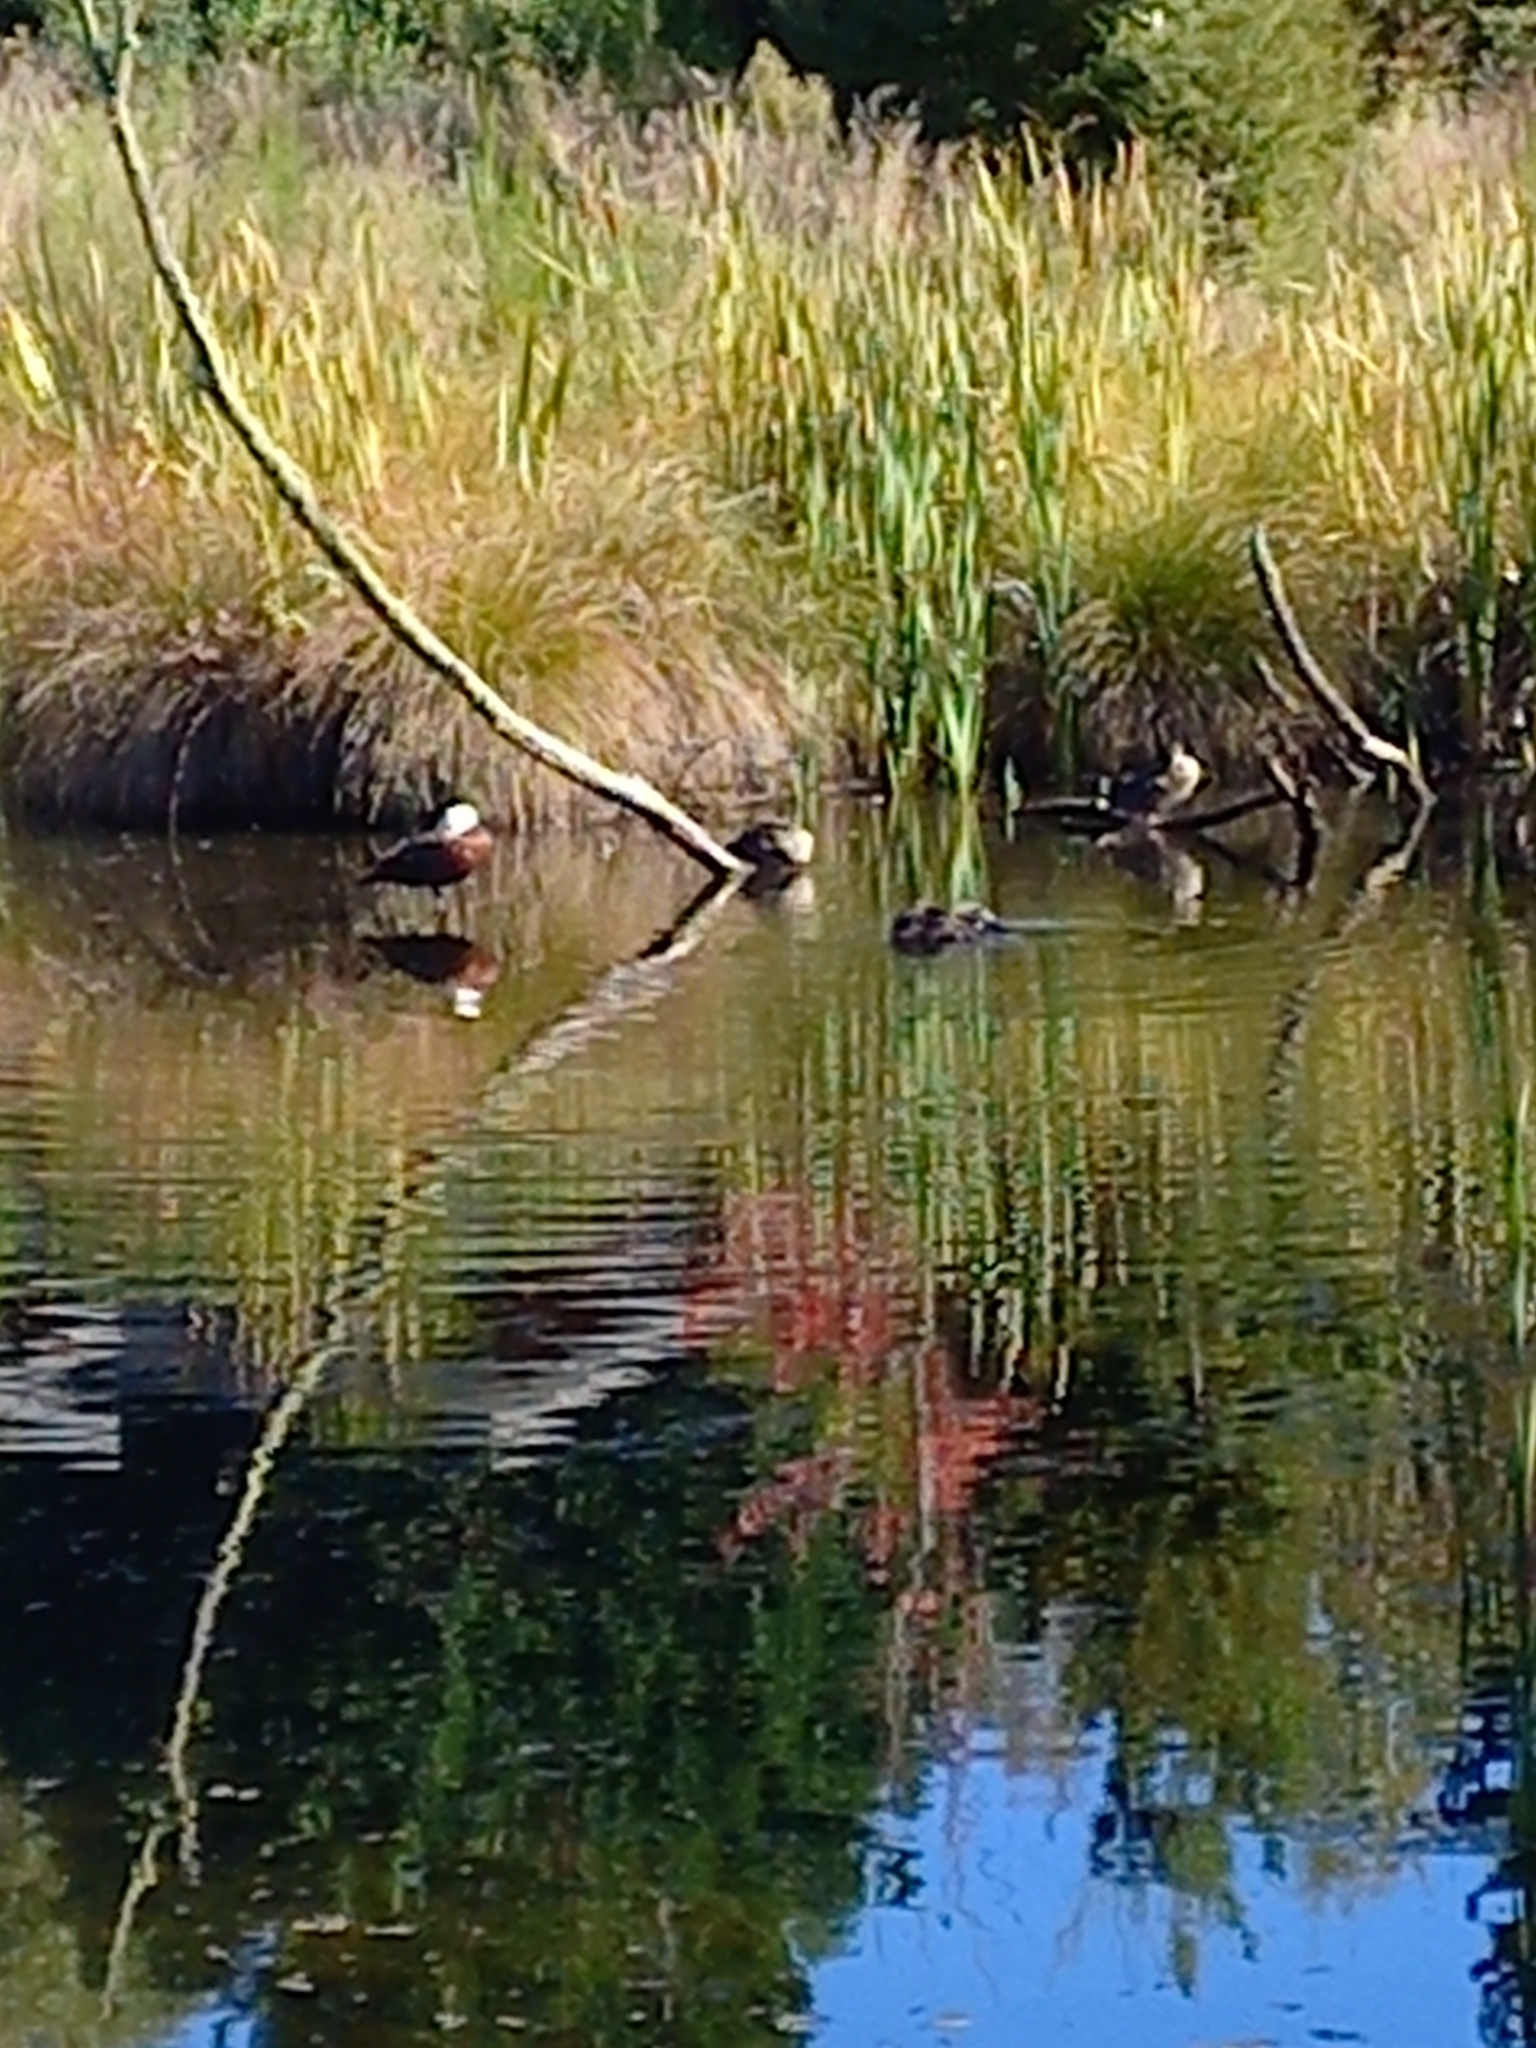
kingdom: Animalia
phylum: Chordata
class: Aves
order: Anseriformes
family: Anatidae
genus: Tadorna
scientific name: Tadorna variegata
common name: Paradise shelduck
